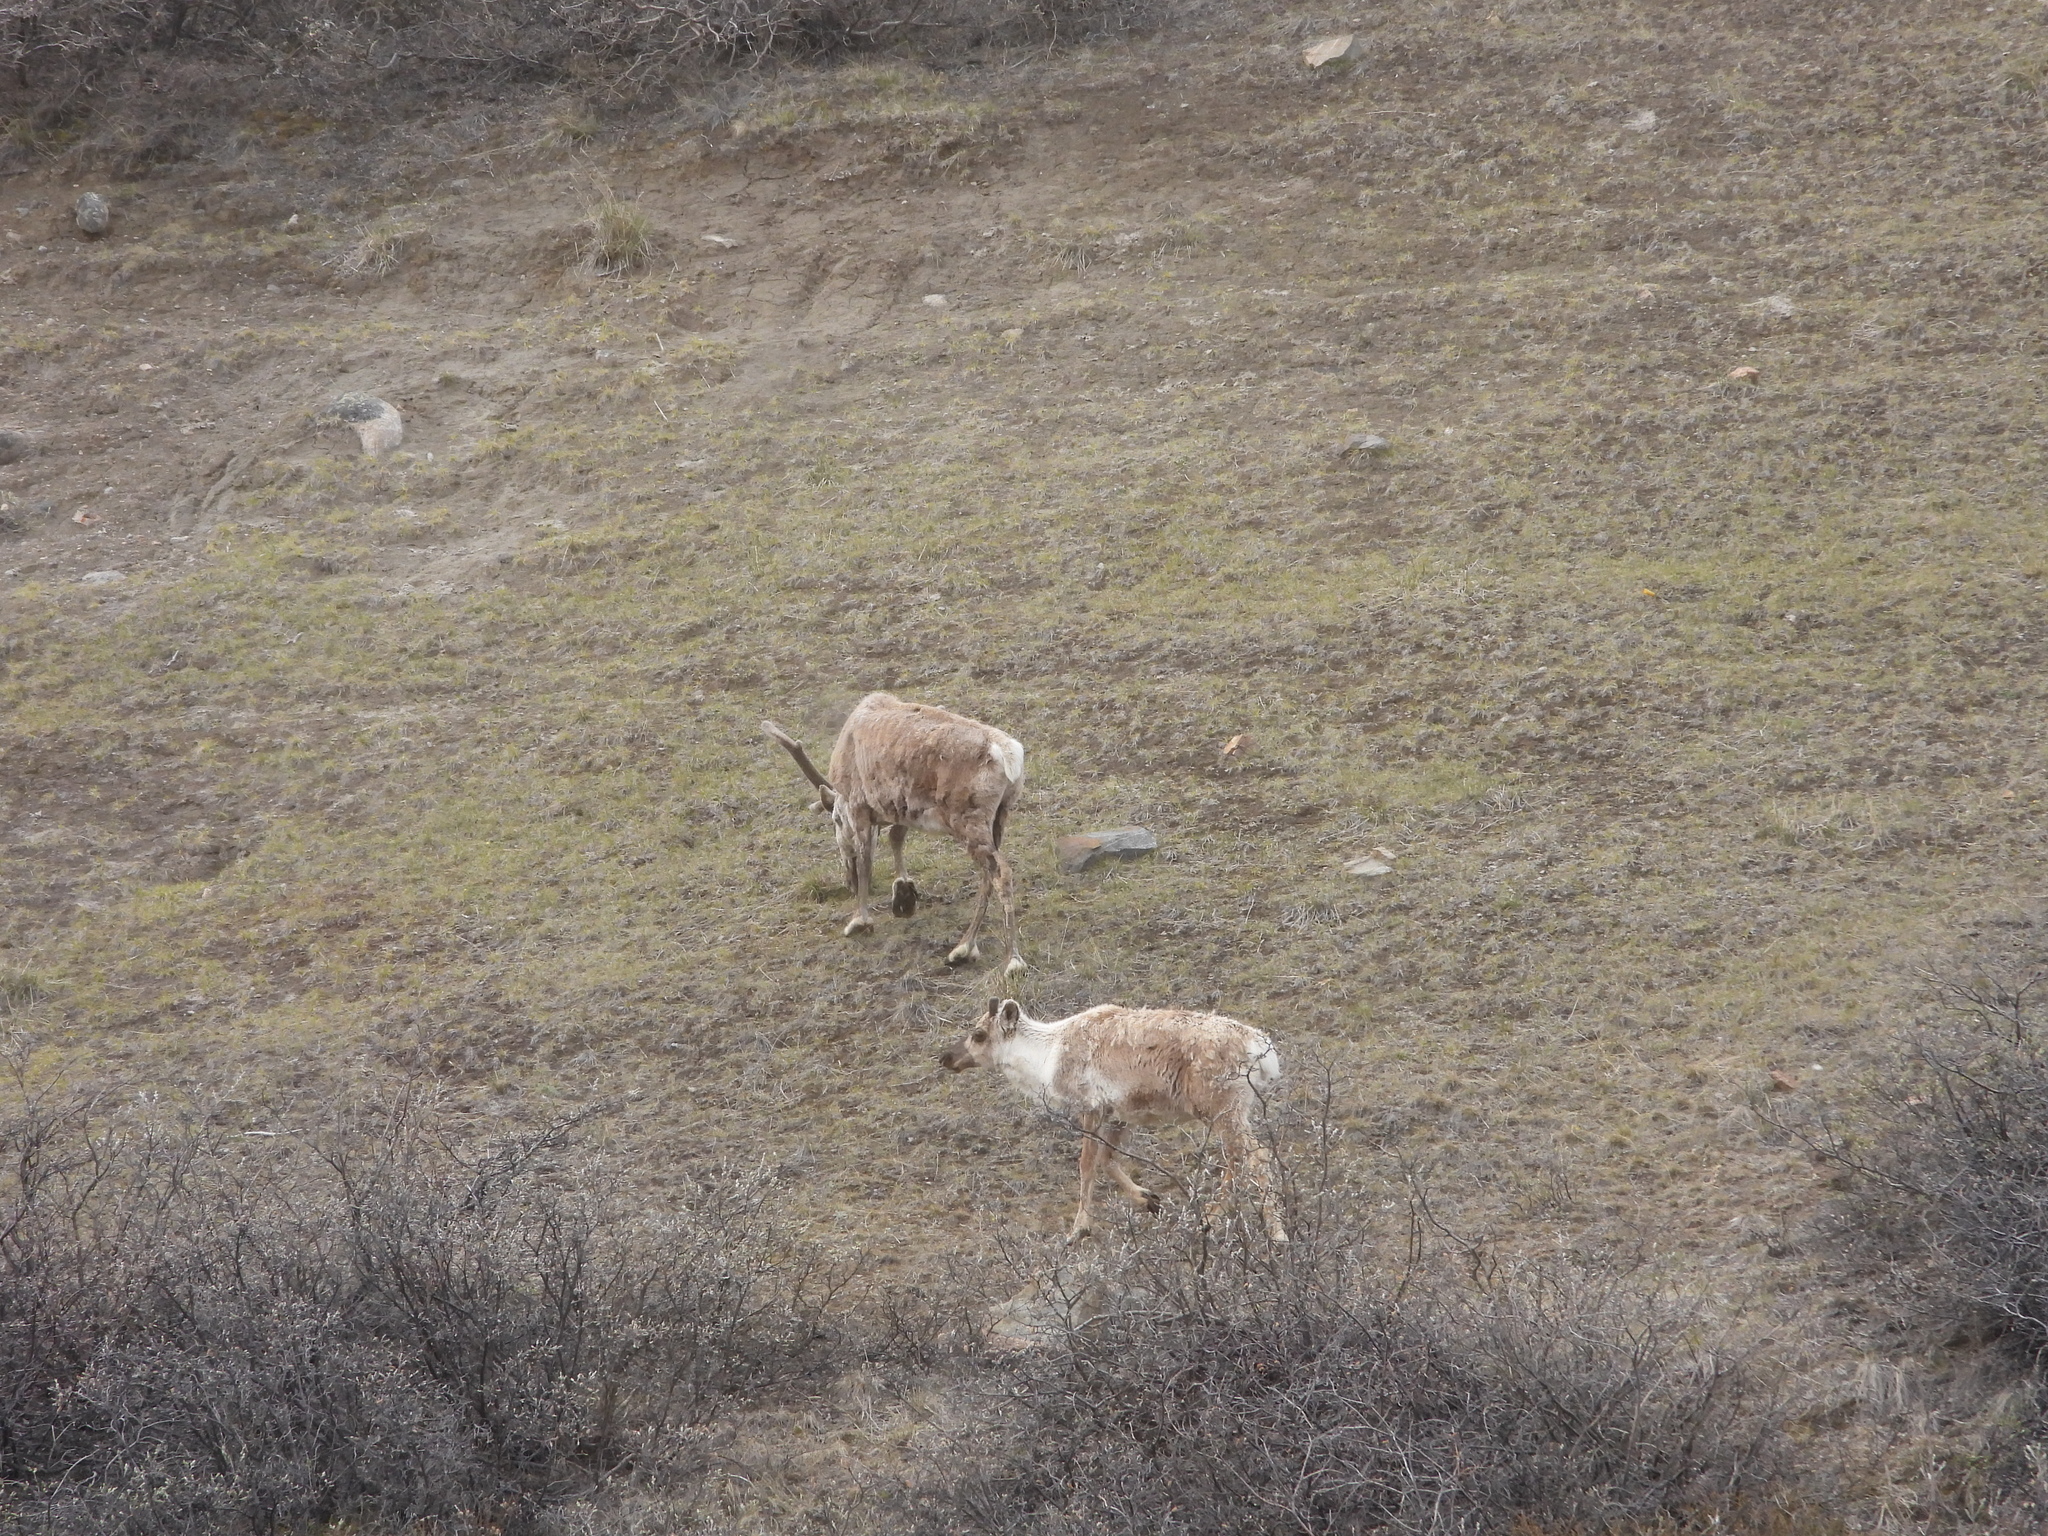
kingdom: Animalia
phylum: Chordata
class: Mammalia
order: Artiodactyla
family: Cervidae
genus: Rangifer
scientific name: Rangifer tarandus
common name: Reindeer
